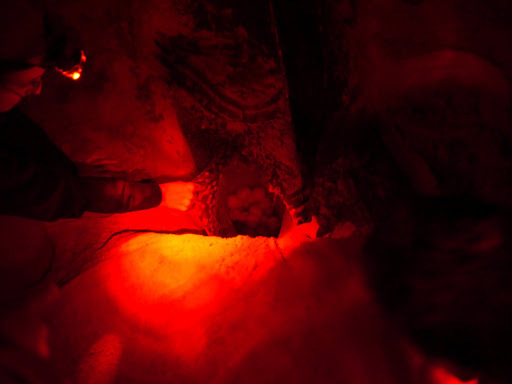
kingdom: Animalia
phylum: Chordata
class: Testudines
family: Dermochelyidae
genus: Dermochelys
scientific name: Dermochelys coriacea
